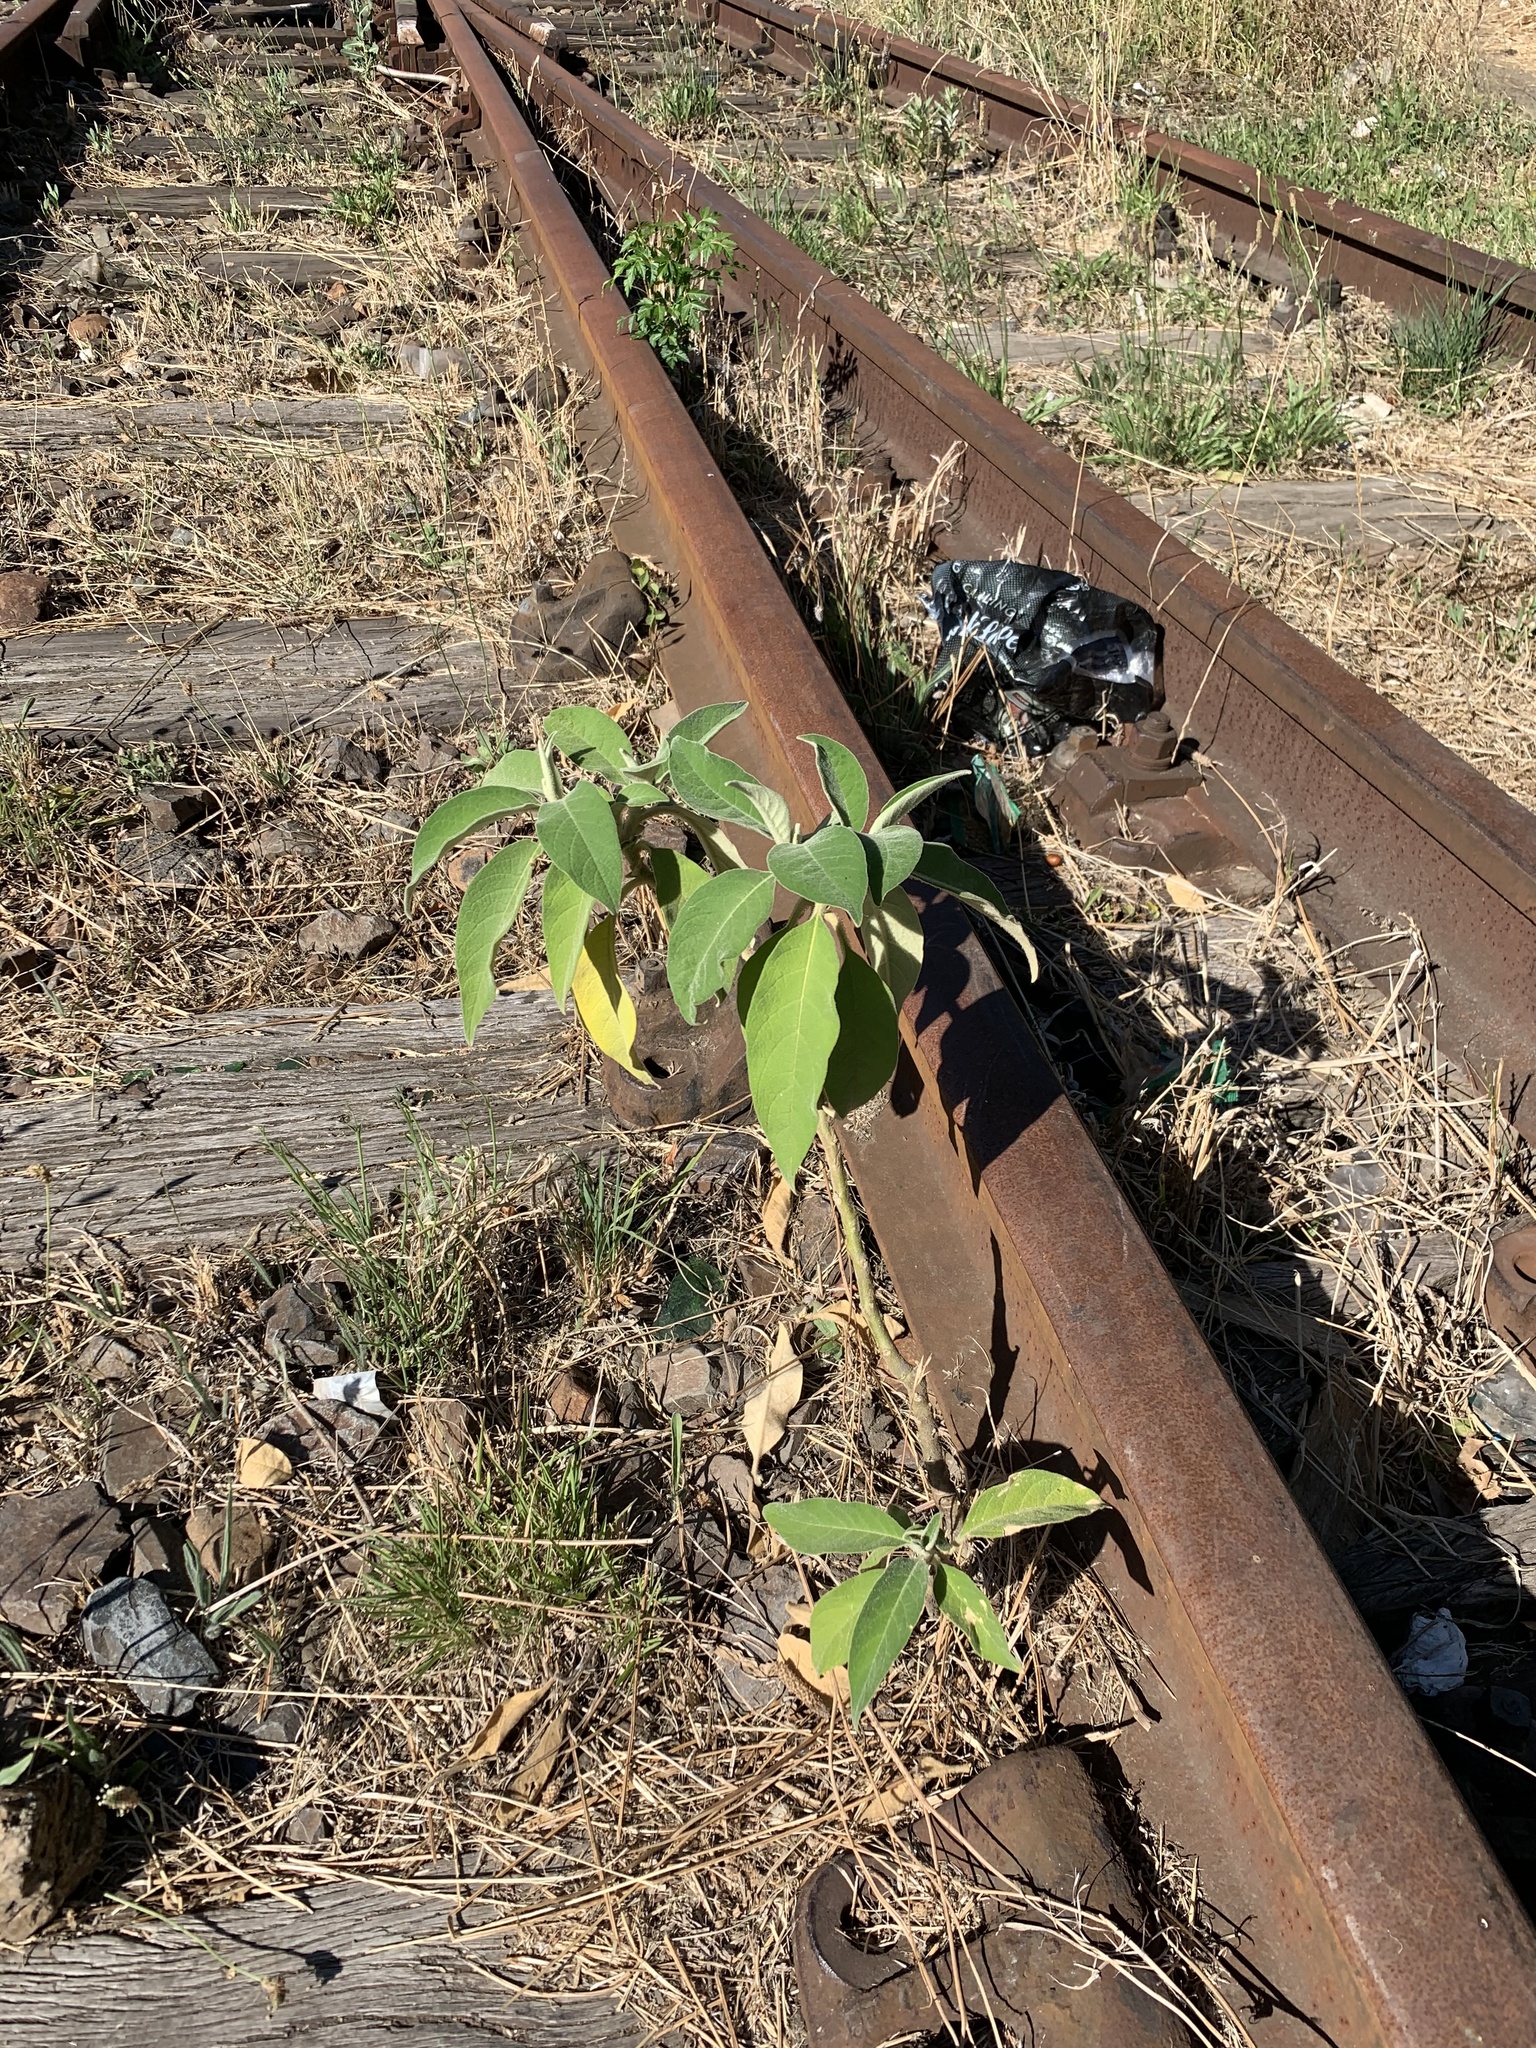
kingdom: Plantae
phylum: Tracheophyta
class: Magnoliopsida
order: Solanales
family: Solanaceae
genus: Solanum
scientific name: Solanum mauritianum
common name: Earleaf nightshade
